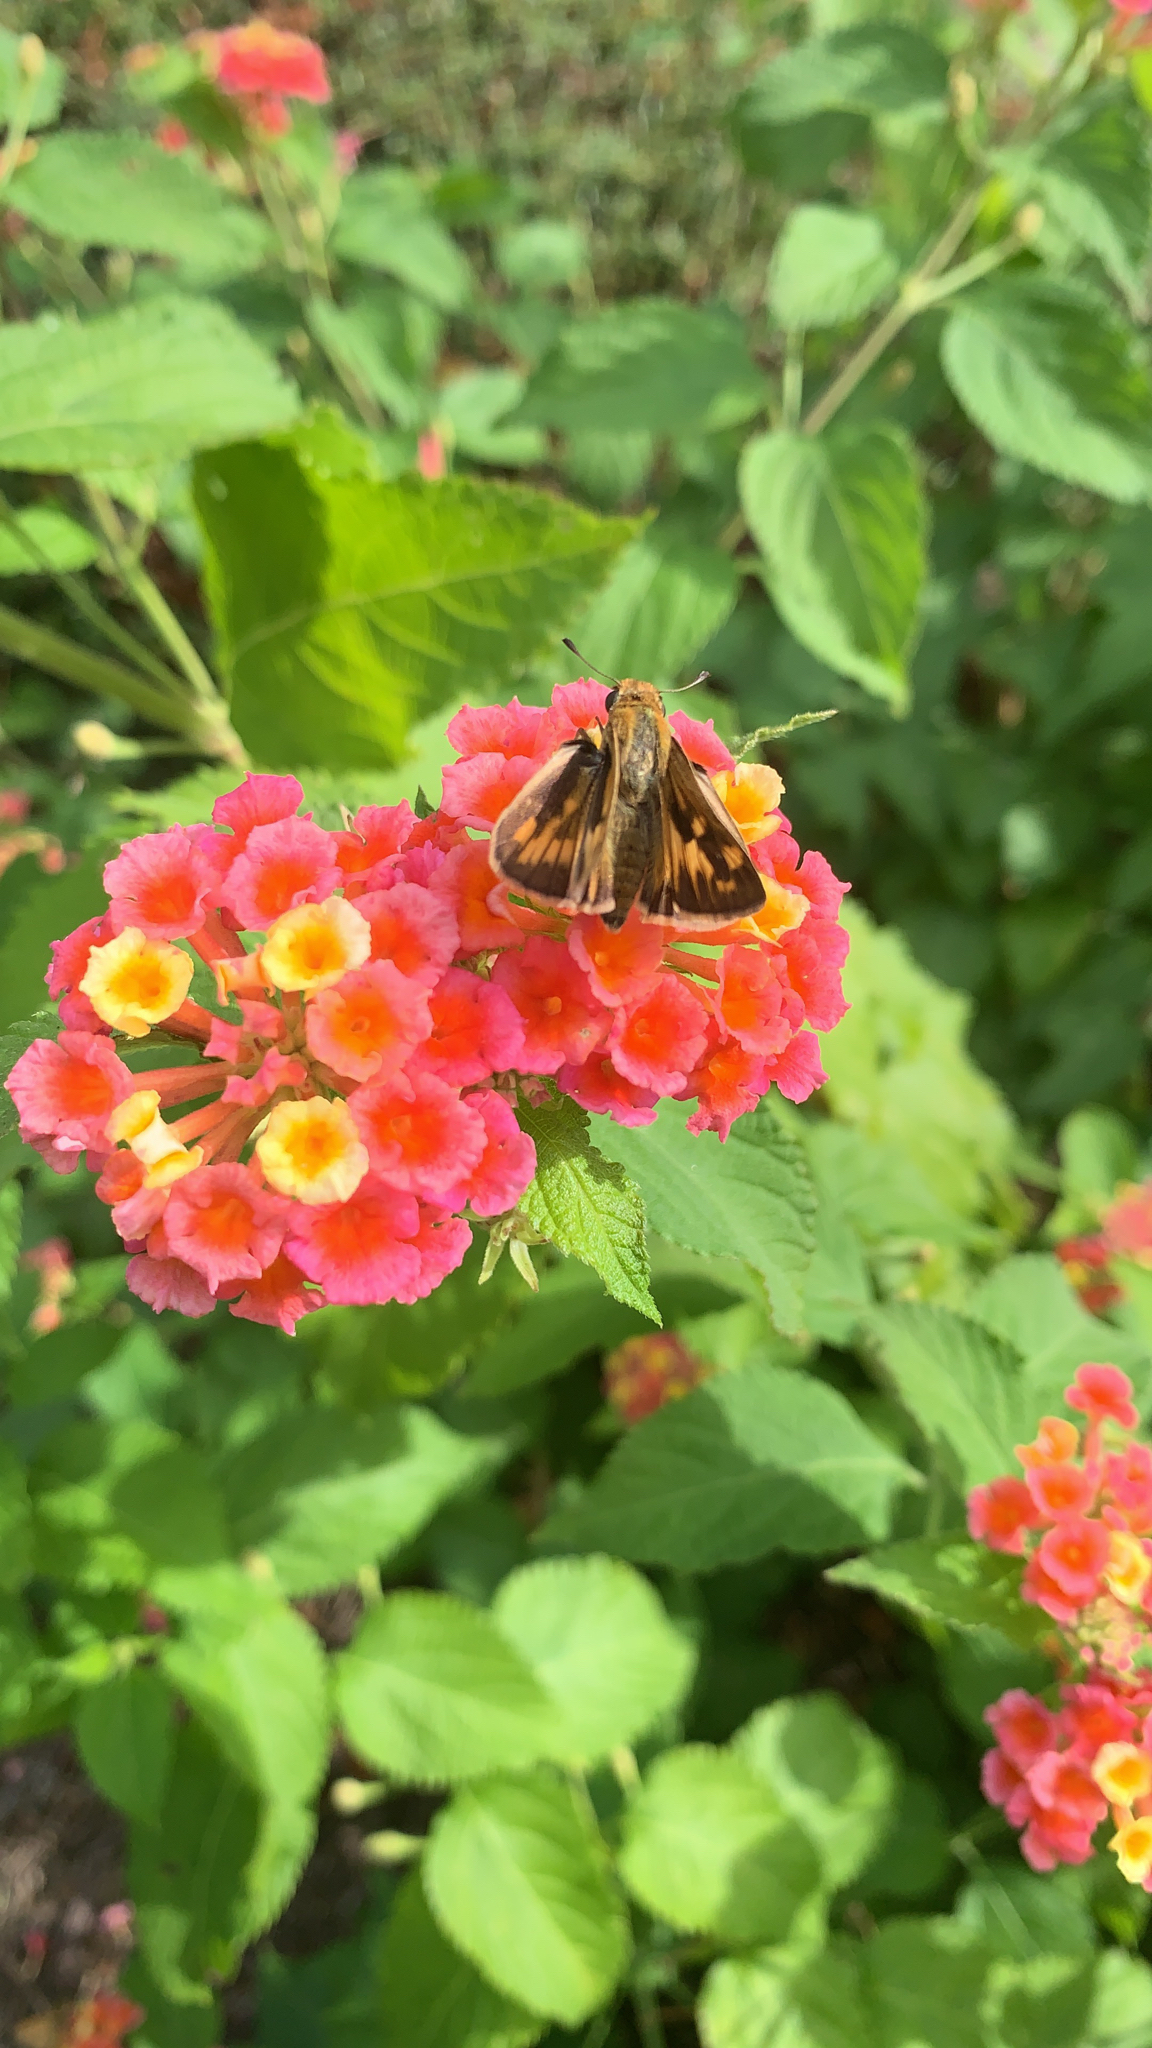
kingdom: Animalia
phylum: Arthropoda
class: Insecta
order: Lepidoptera
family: Hesperiidae
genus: Hylephila
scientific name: Hylephila phyleus
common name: Fiery skipper
